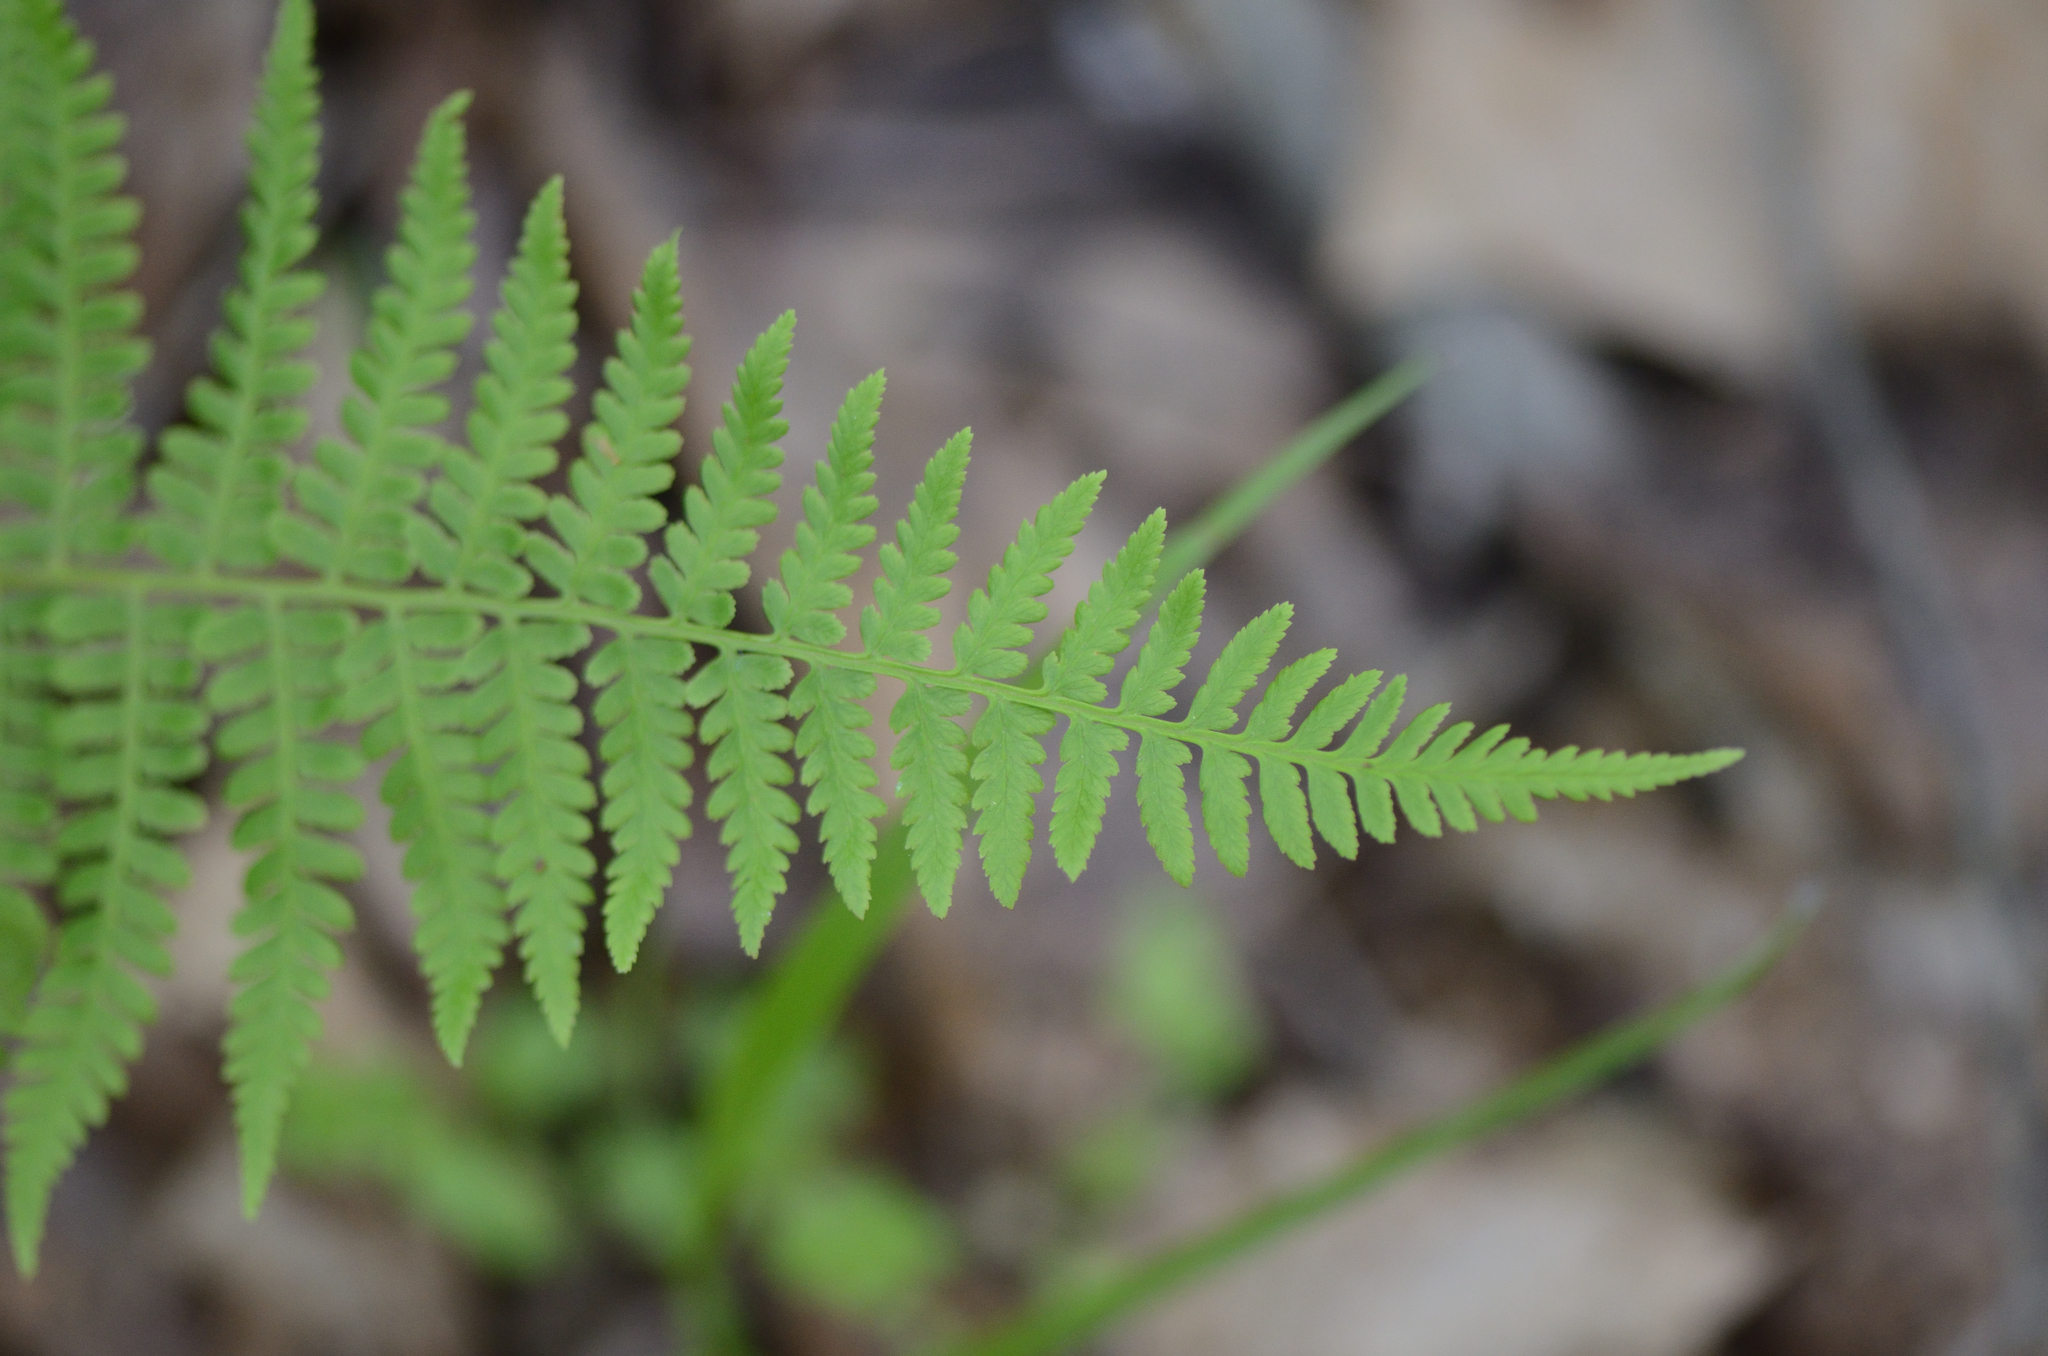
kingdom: Plantae
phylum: Tracheophyta
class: Polypodiopsida
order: Polypodiales
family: Athyriaceae
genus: Athyrium
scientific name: Athyrium asplenioides
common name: Southern lady fern
